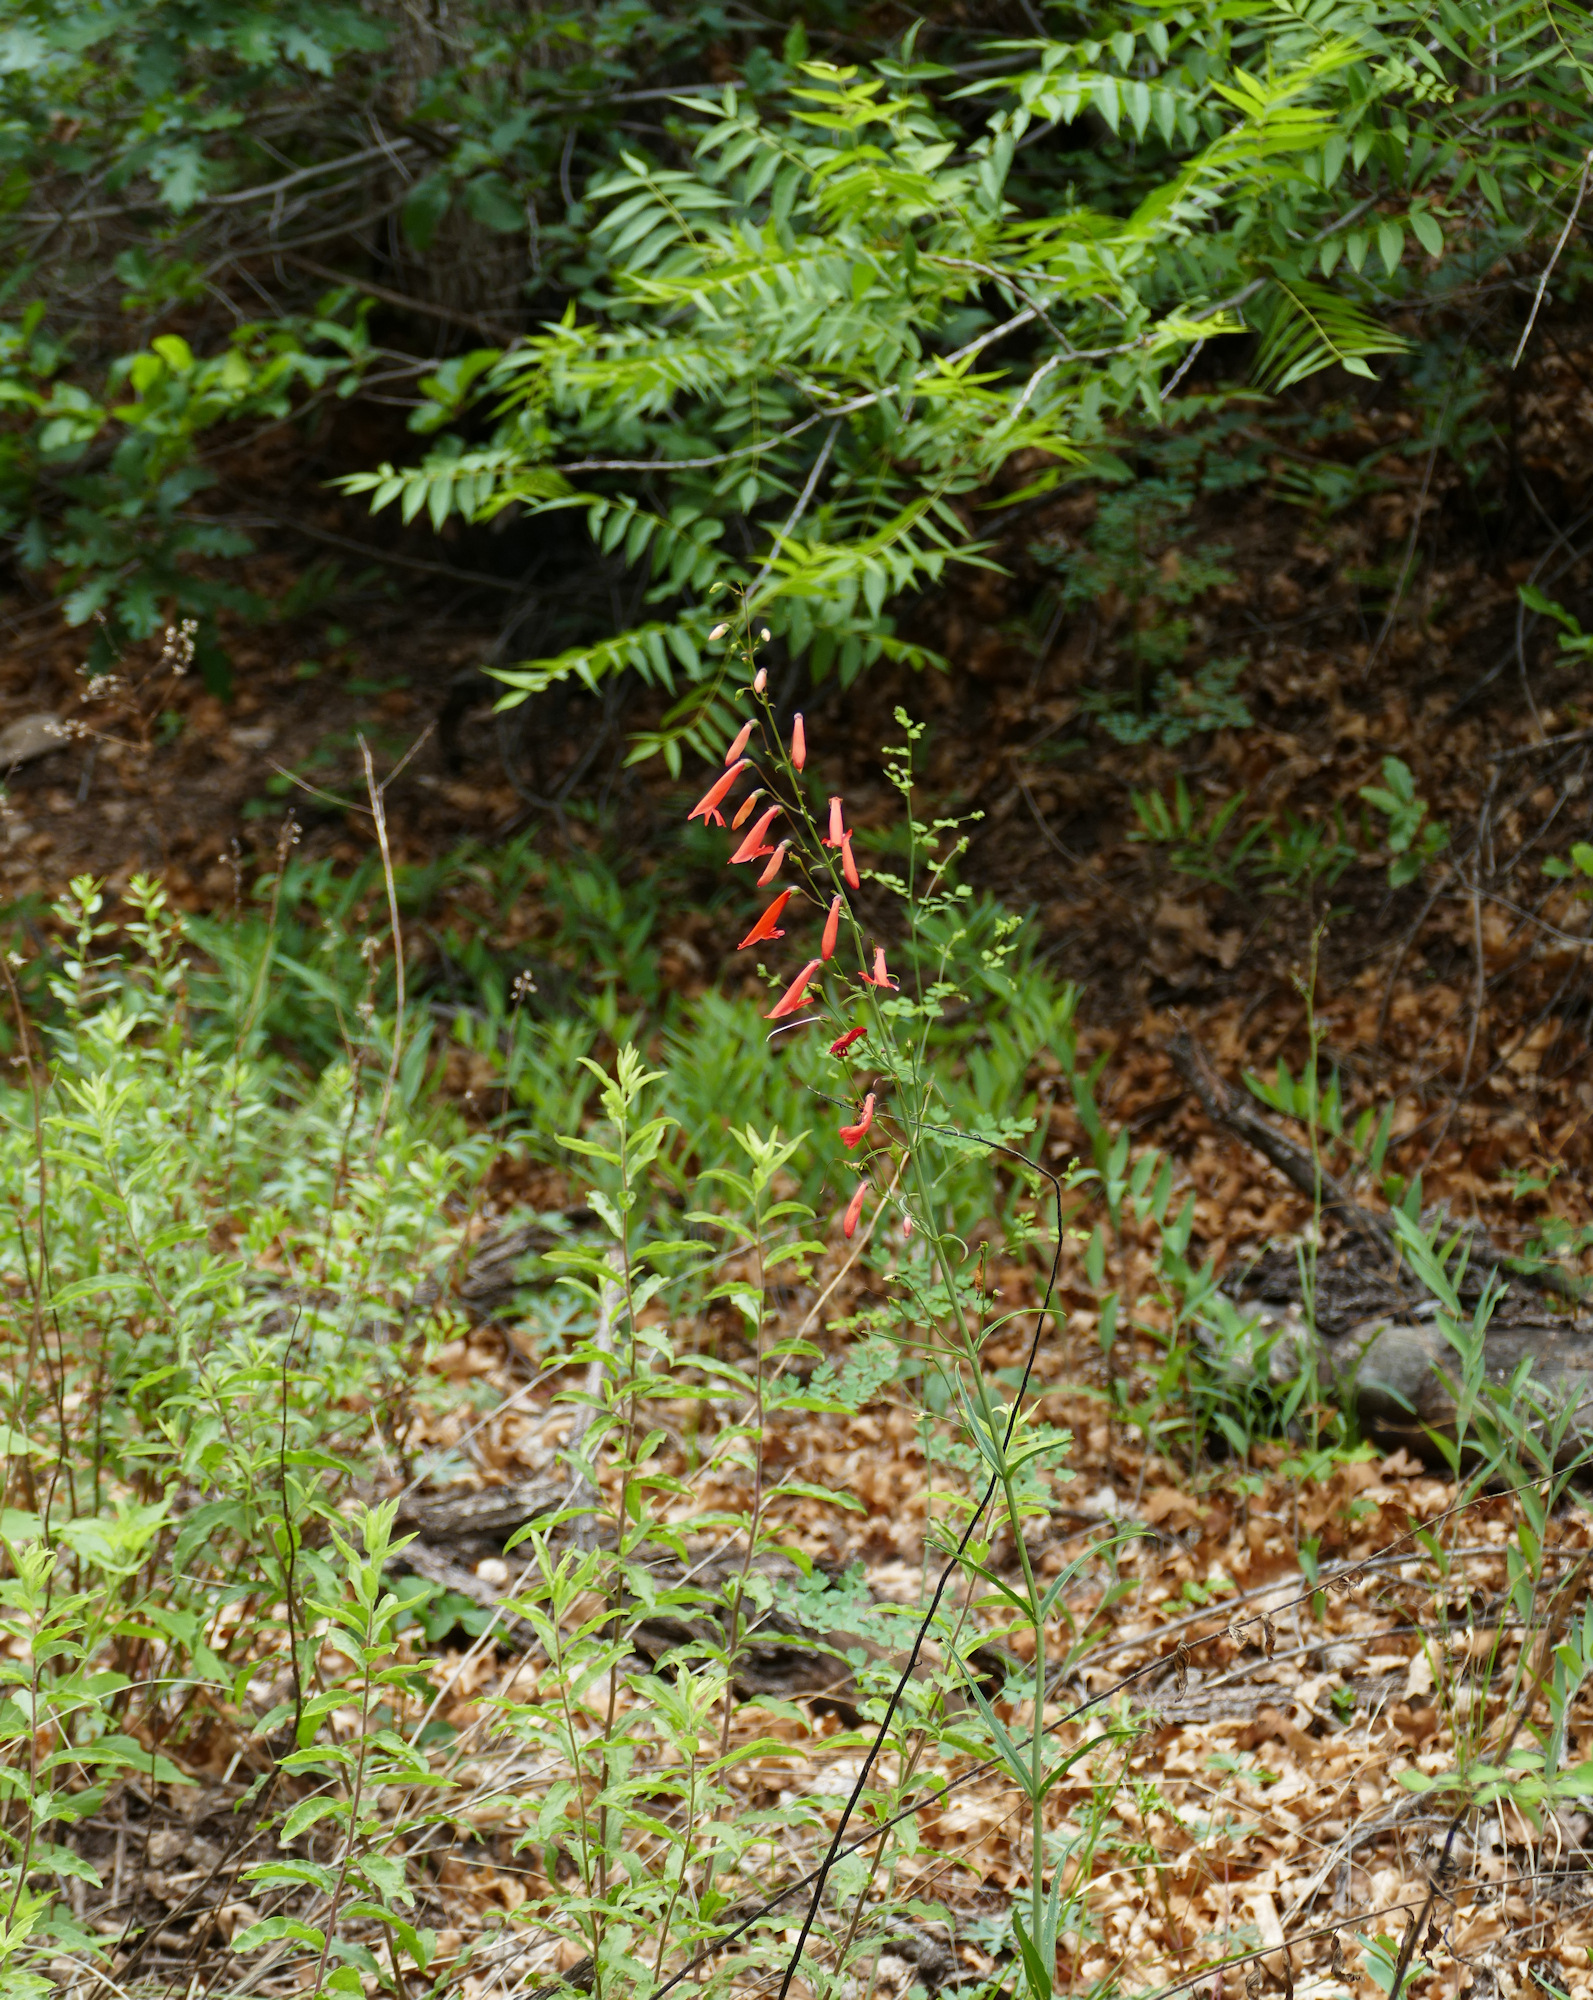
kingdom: Plantae
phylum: Tracheophyta
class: Magnoliopsida
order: Lamiales
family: Plantaginaceae
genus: Penstemon
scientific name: Penstemon barbatus
